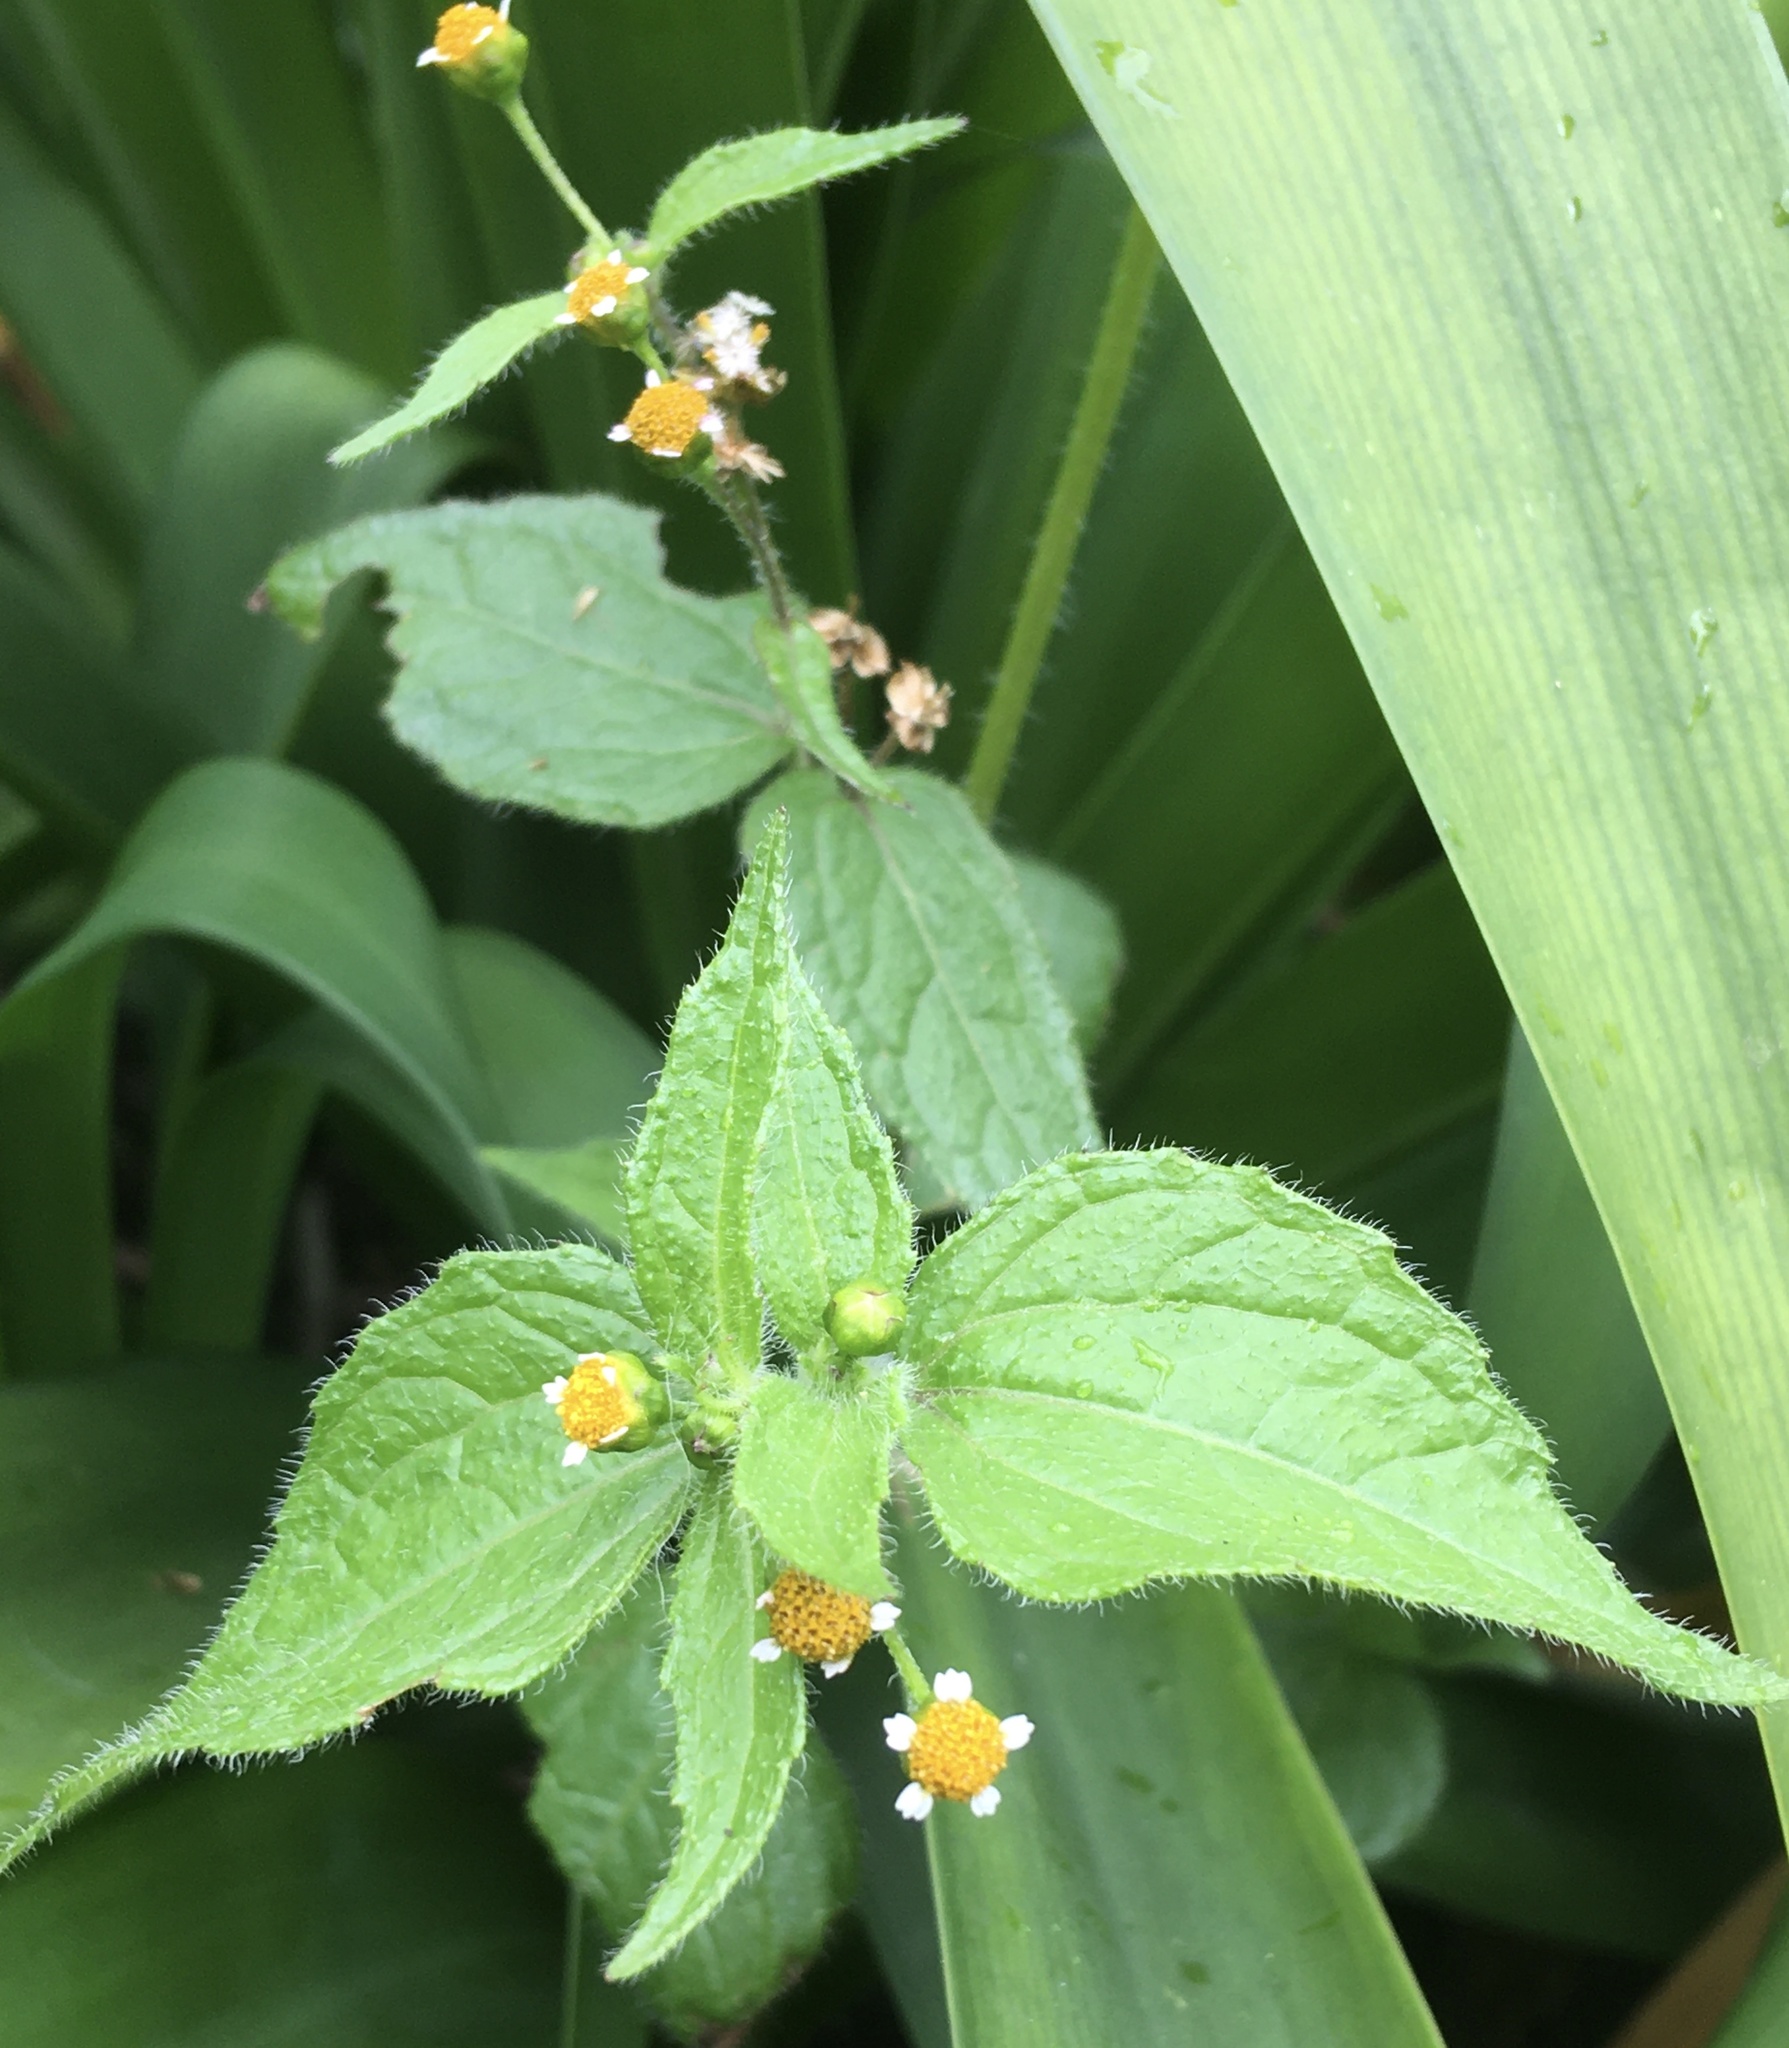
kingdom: Plantae
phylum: Tracheophyta
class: Magnoliopsida
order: Asterales
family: Asteraceae
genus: Galinsoga
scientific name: Galinsoga parviflora
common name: Gallant soldier
